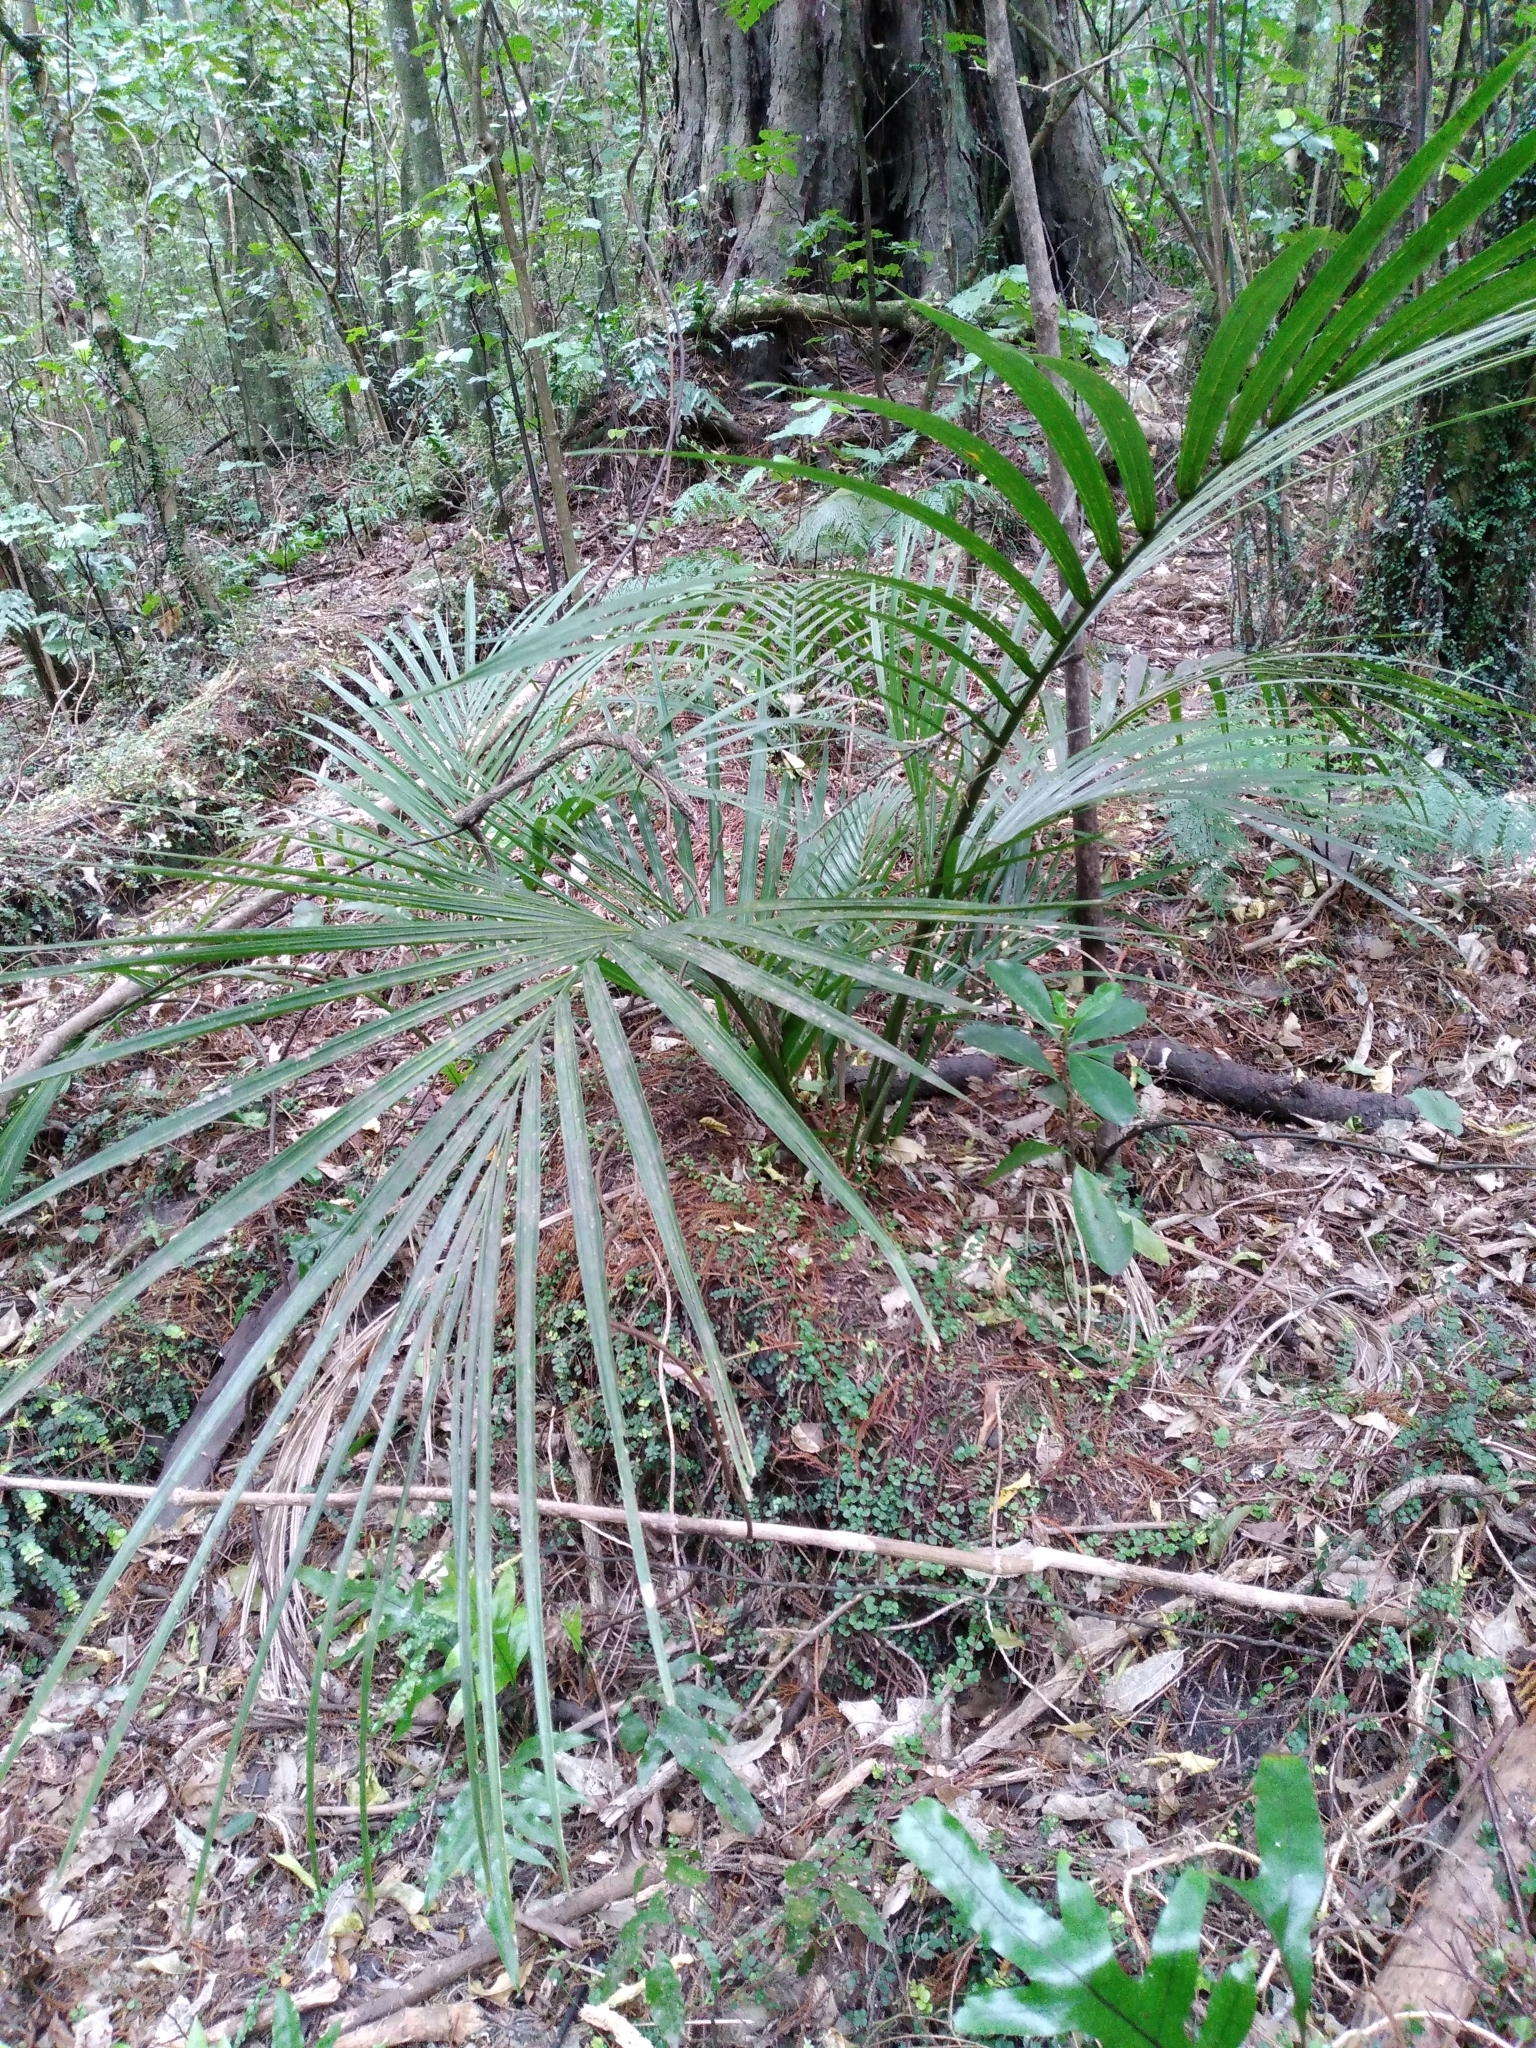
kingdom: Plantae
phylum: Tracheophyta
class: Liliopsida
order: Arecales
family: Arecaceae
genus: Rhopalostylis
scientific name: Rhopalostylis sapida
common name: Feather-duster palm
